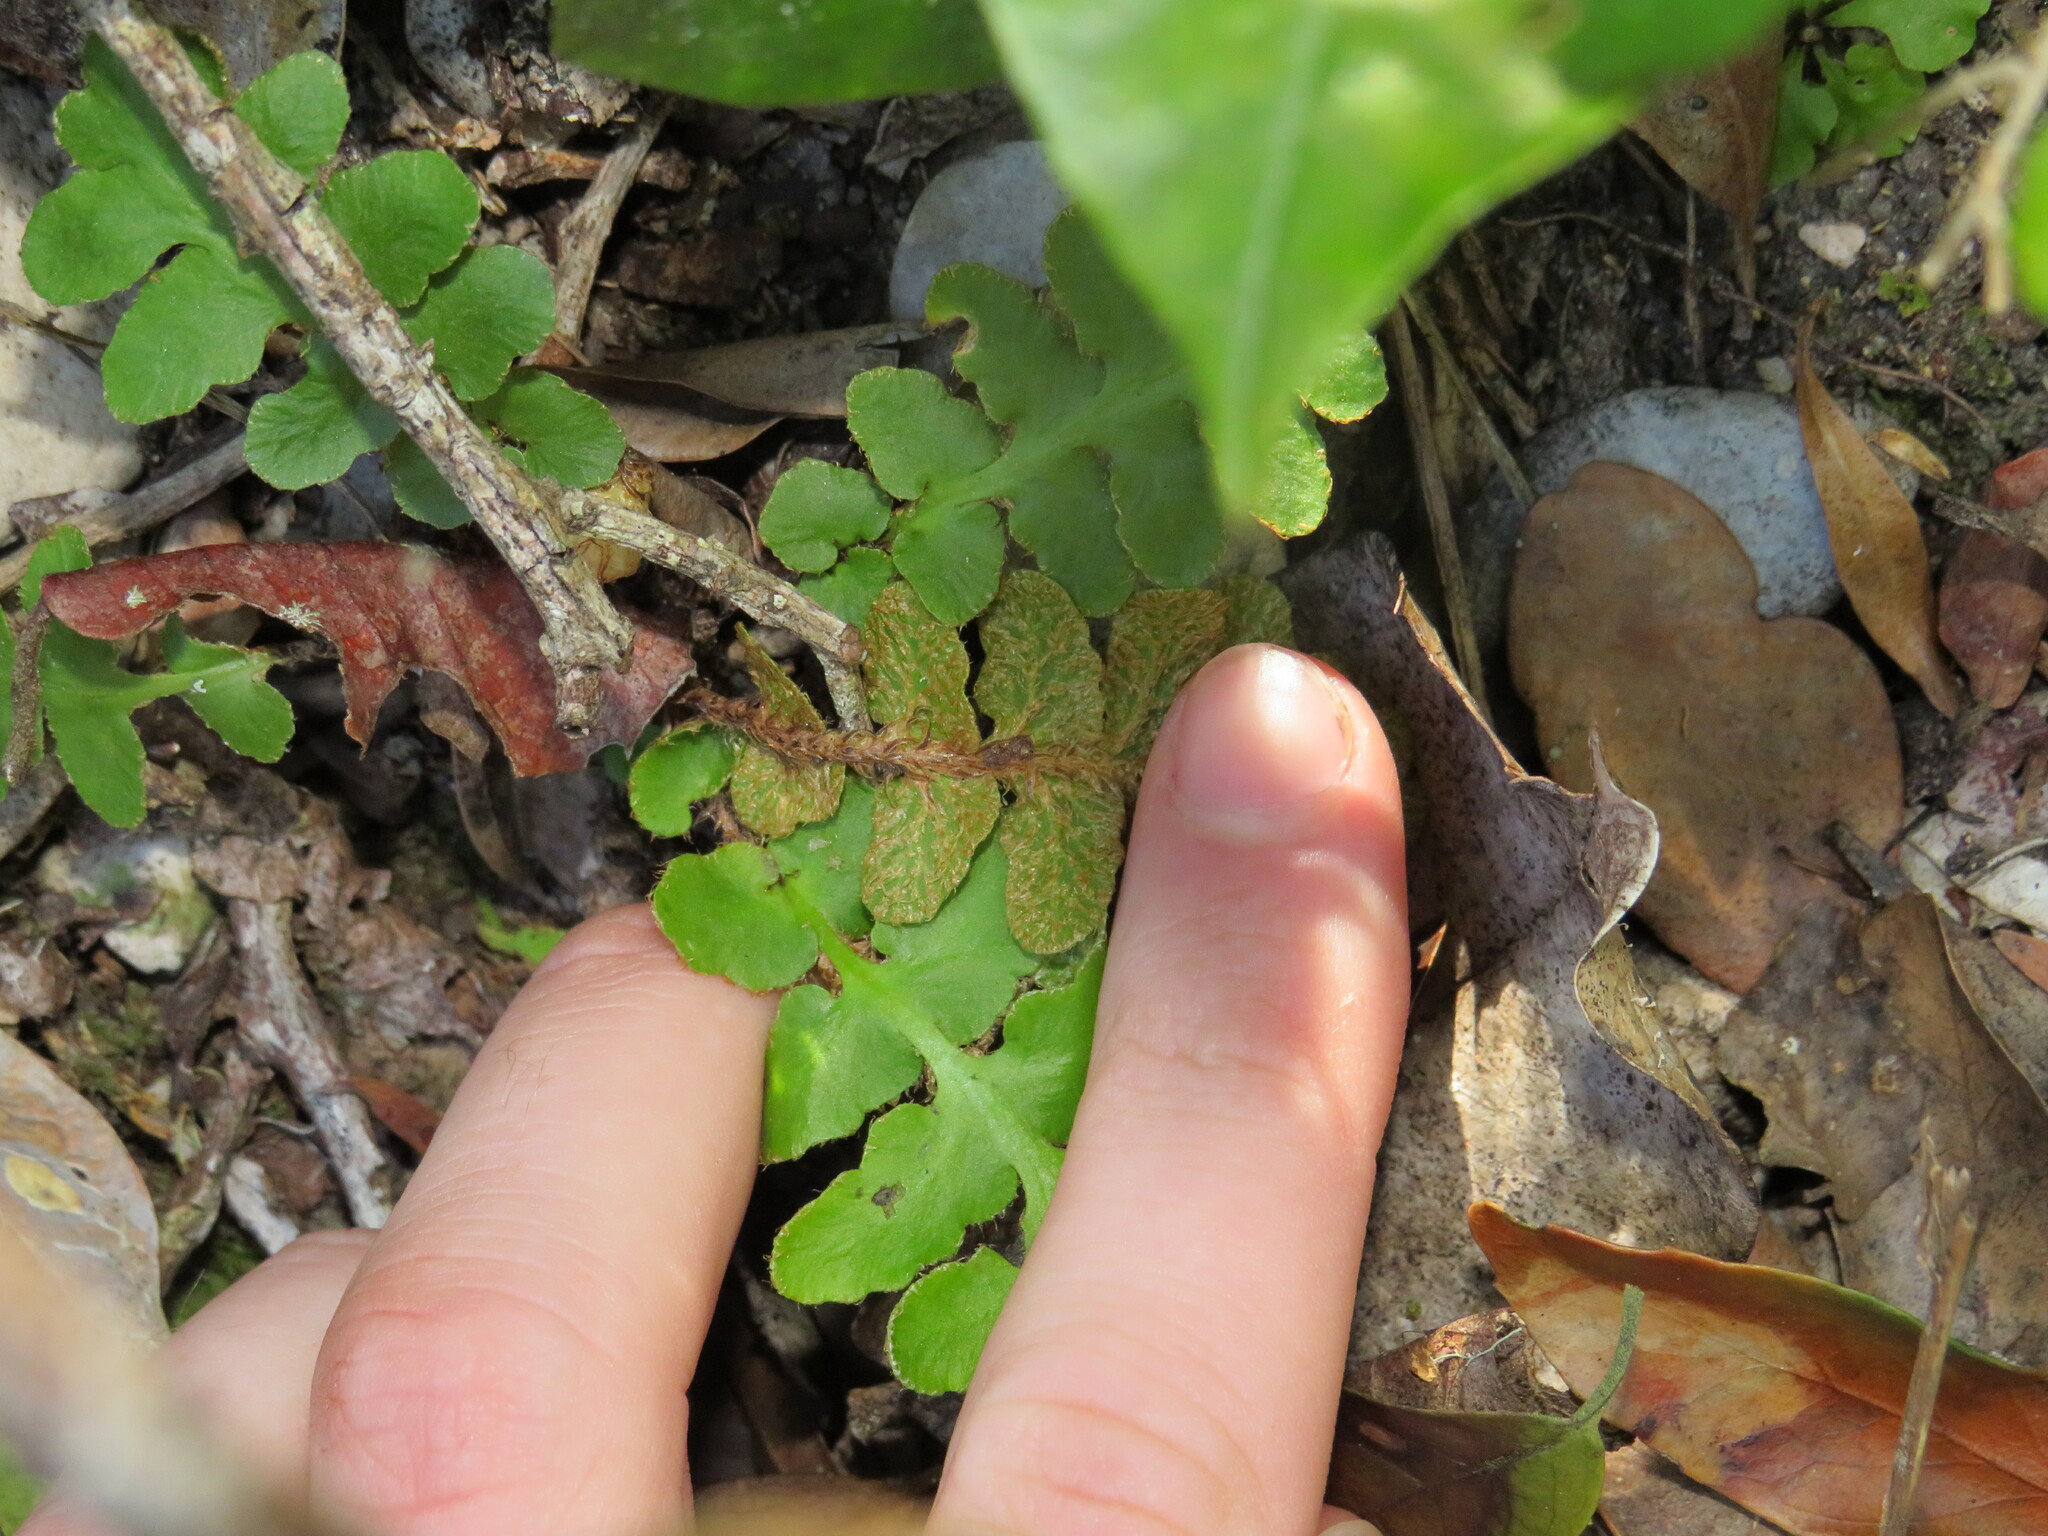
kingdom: Plantae
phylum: Tracheophyta
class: Polypodiopsida
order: Polypodiales
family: Aspleniaceae
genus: Asplenium
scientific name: Asplenium cordatum
